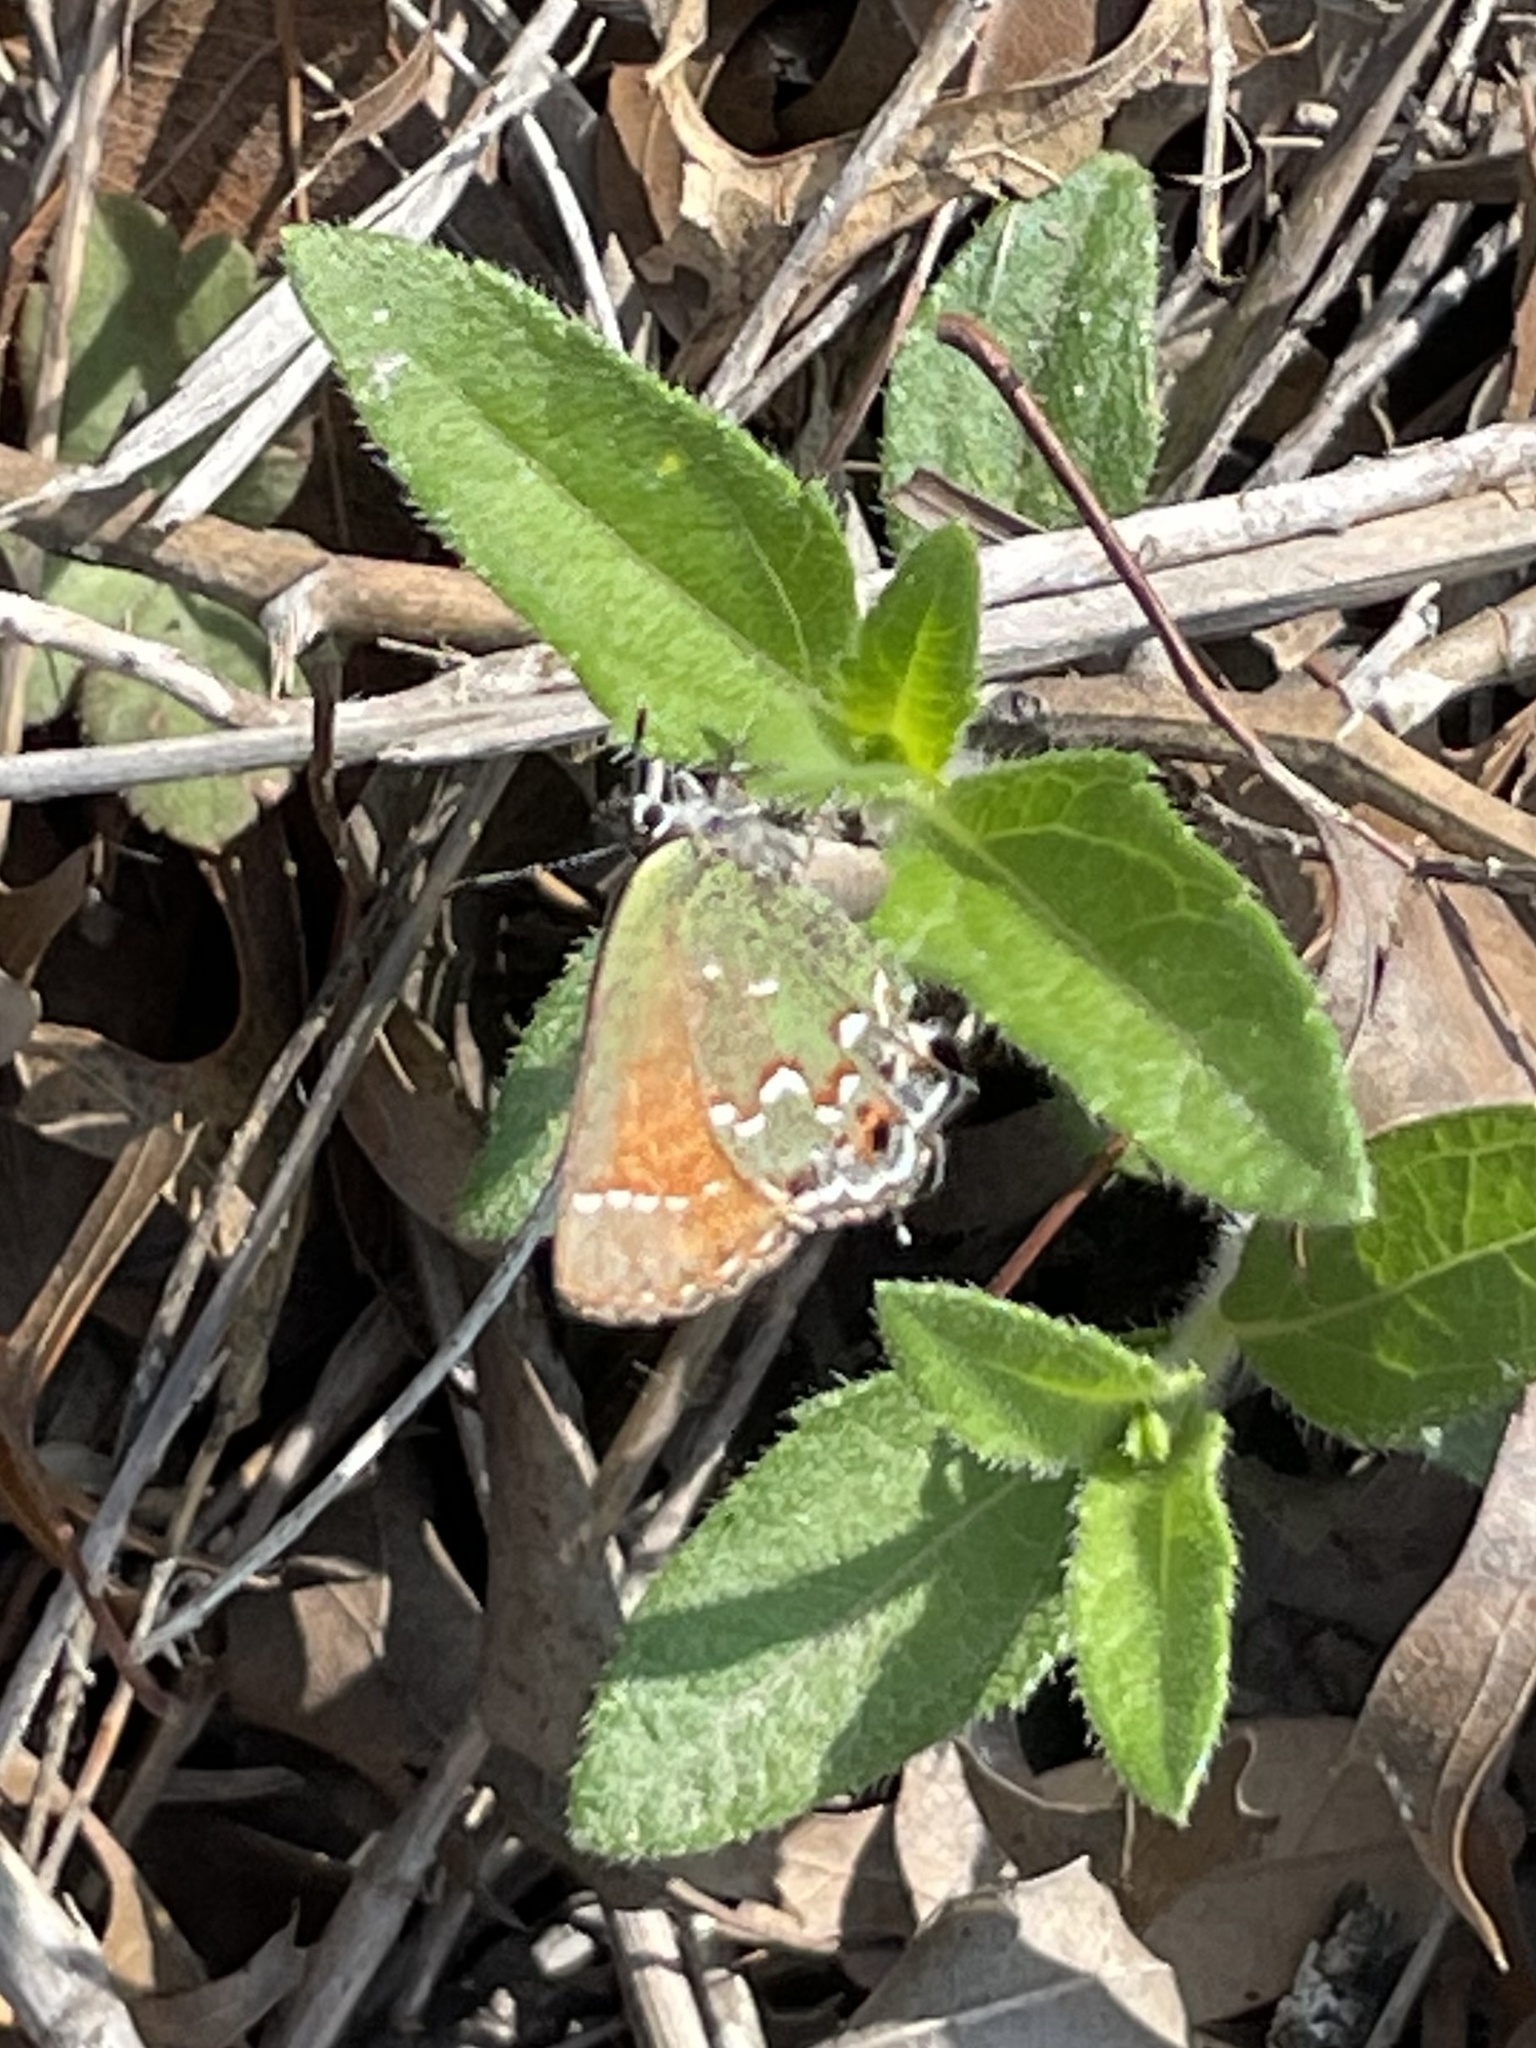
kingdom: Animalia
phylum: Arthropoda
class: Insecta
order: Lepidoptera
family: Lycaenidae
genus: Mitoura
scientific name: Mitoura gryneus
